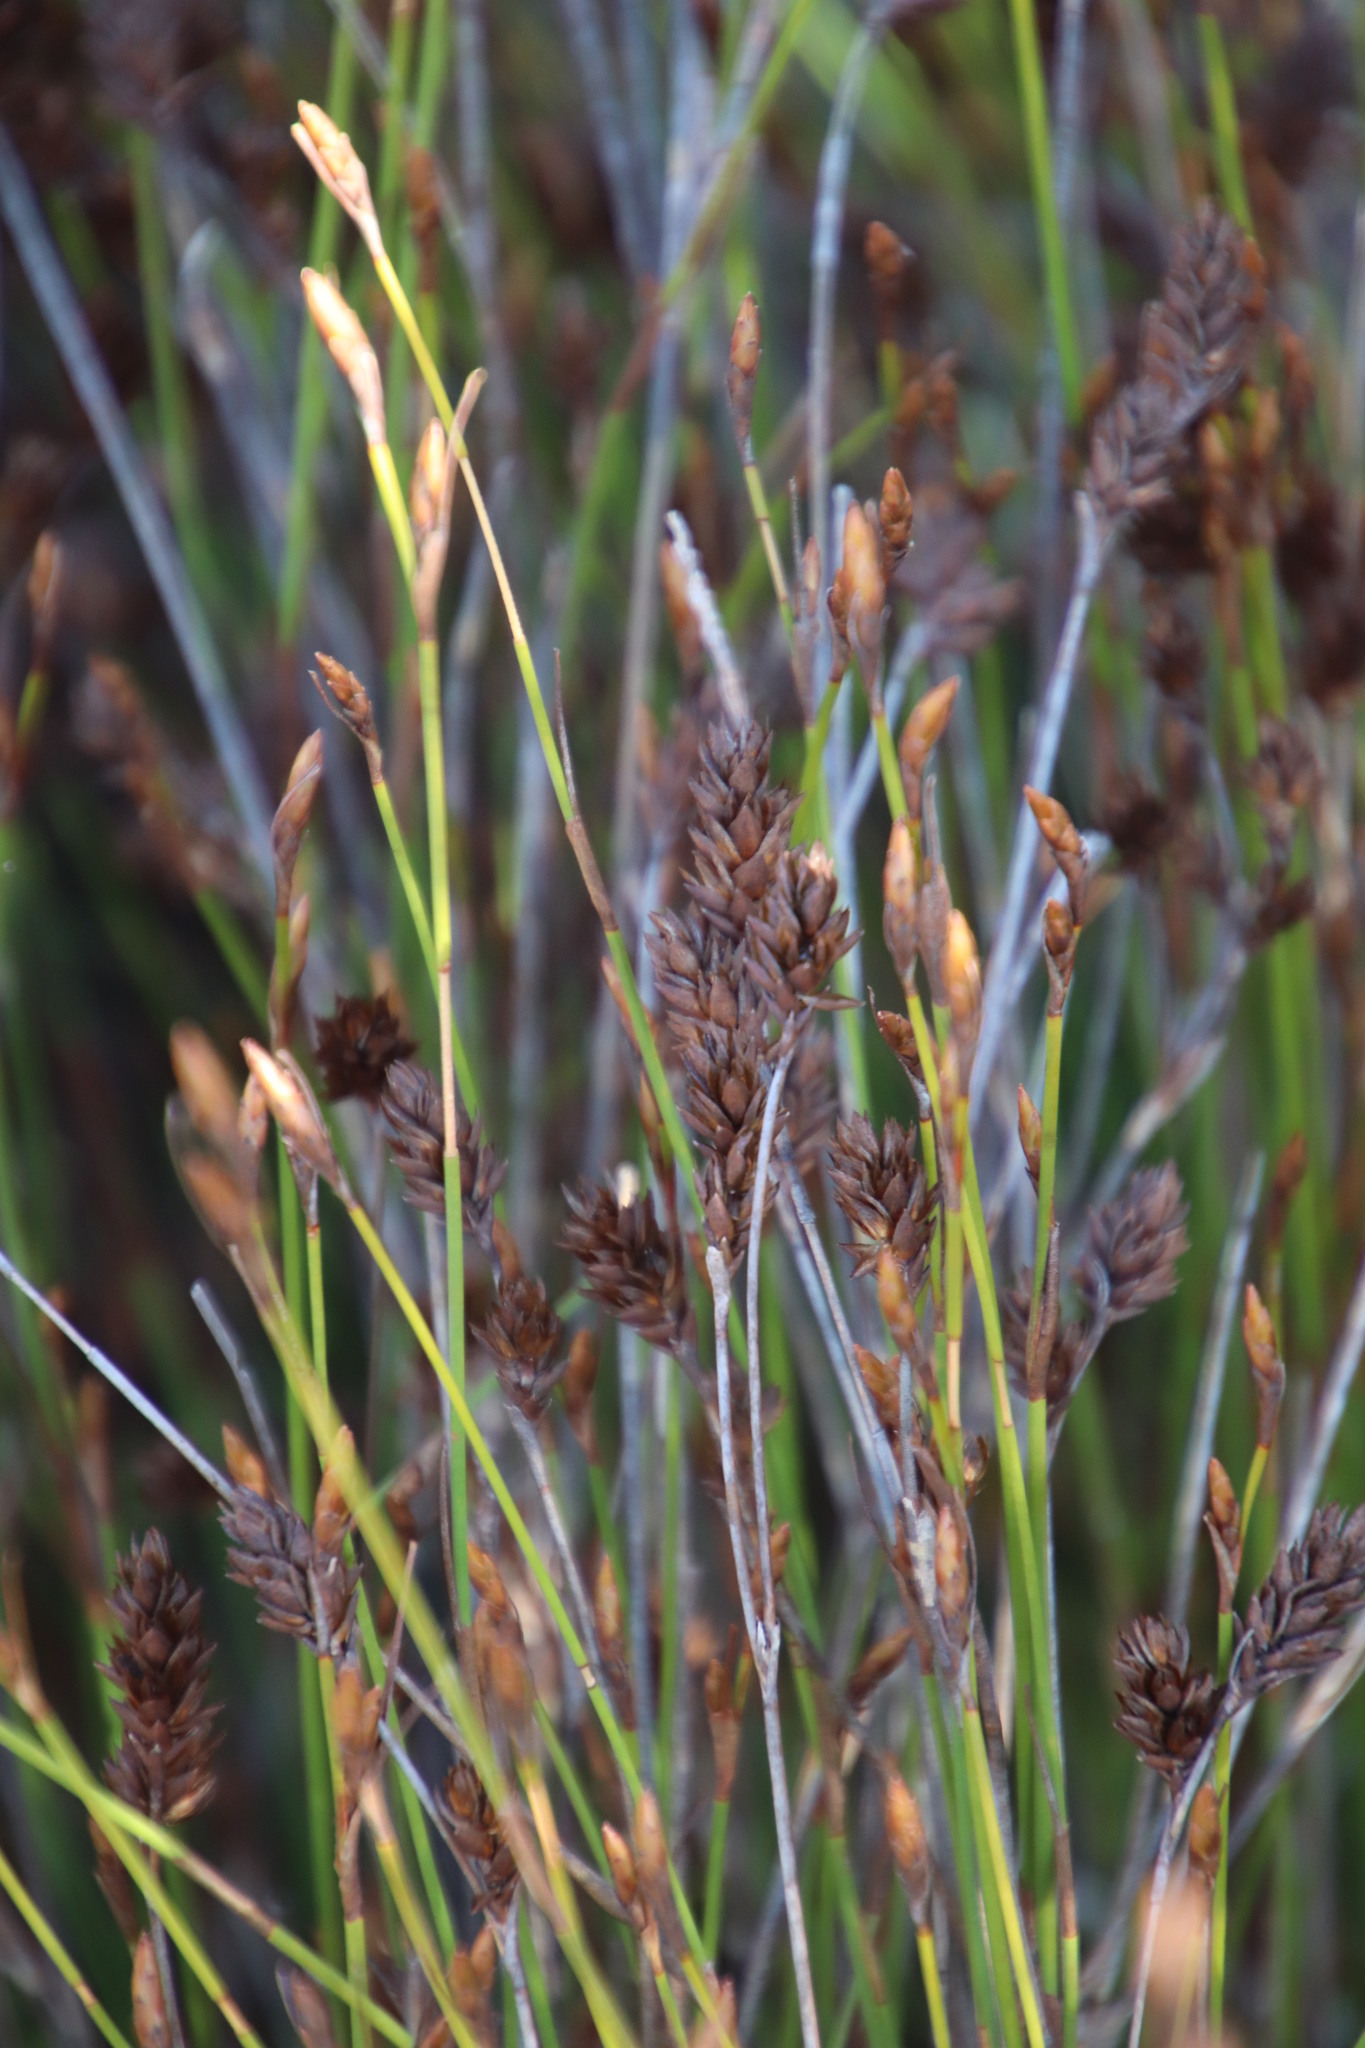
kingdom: Plantae
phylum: Tracheophyta
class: Liliopsida
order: Poales
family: Restionaceae
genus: Restio
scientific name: Restio capensis
